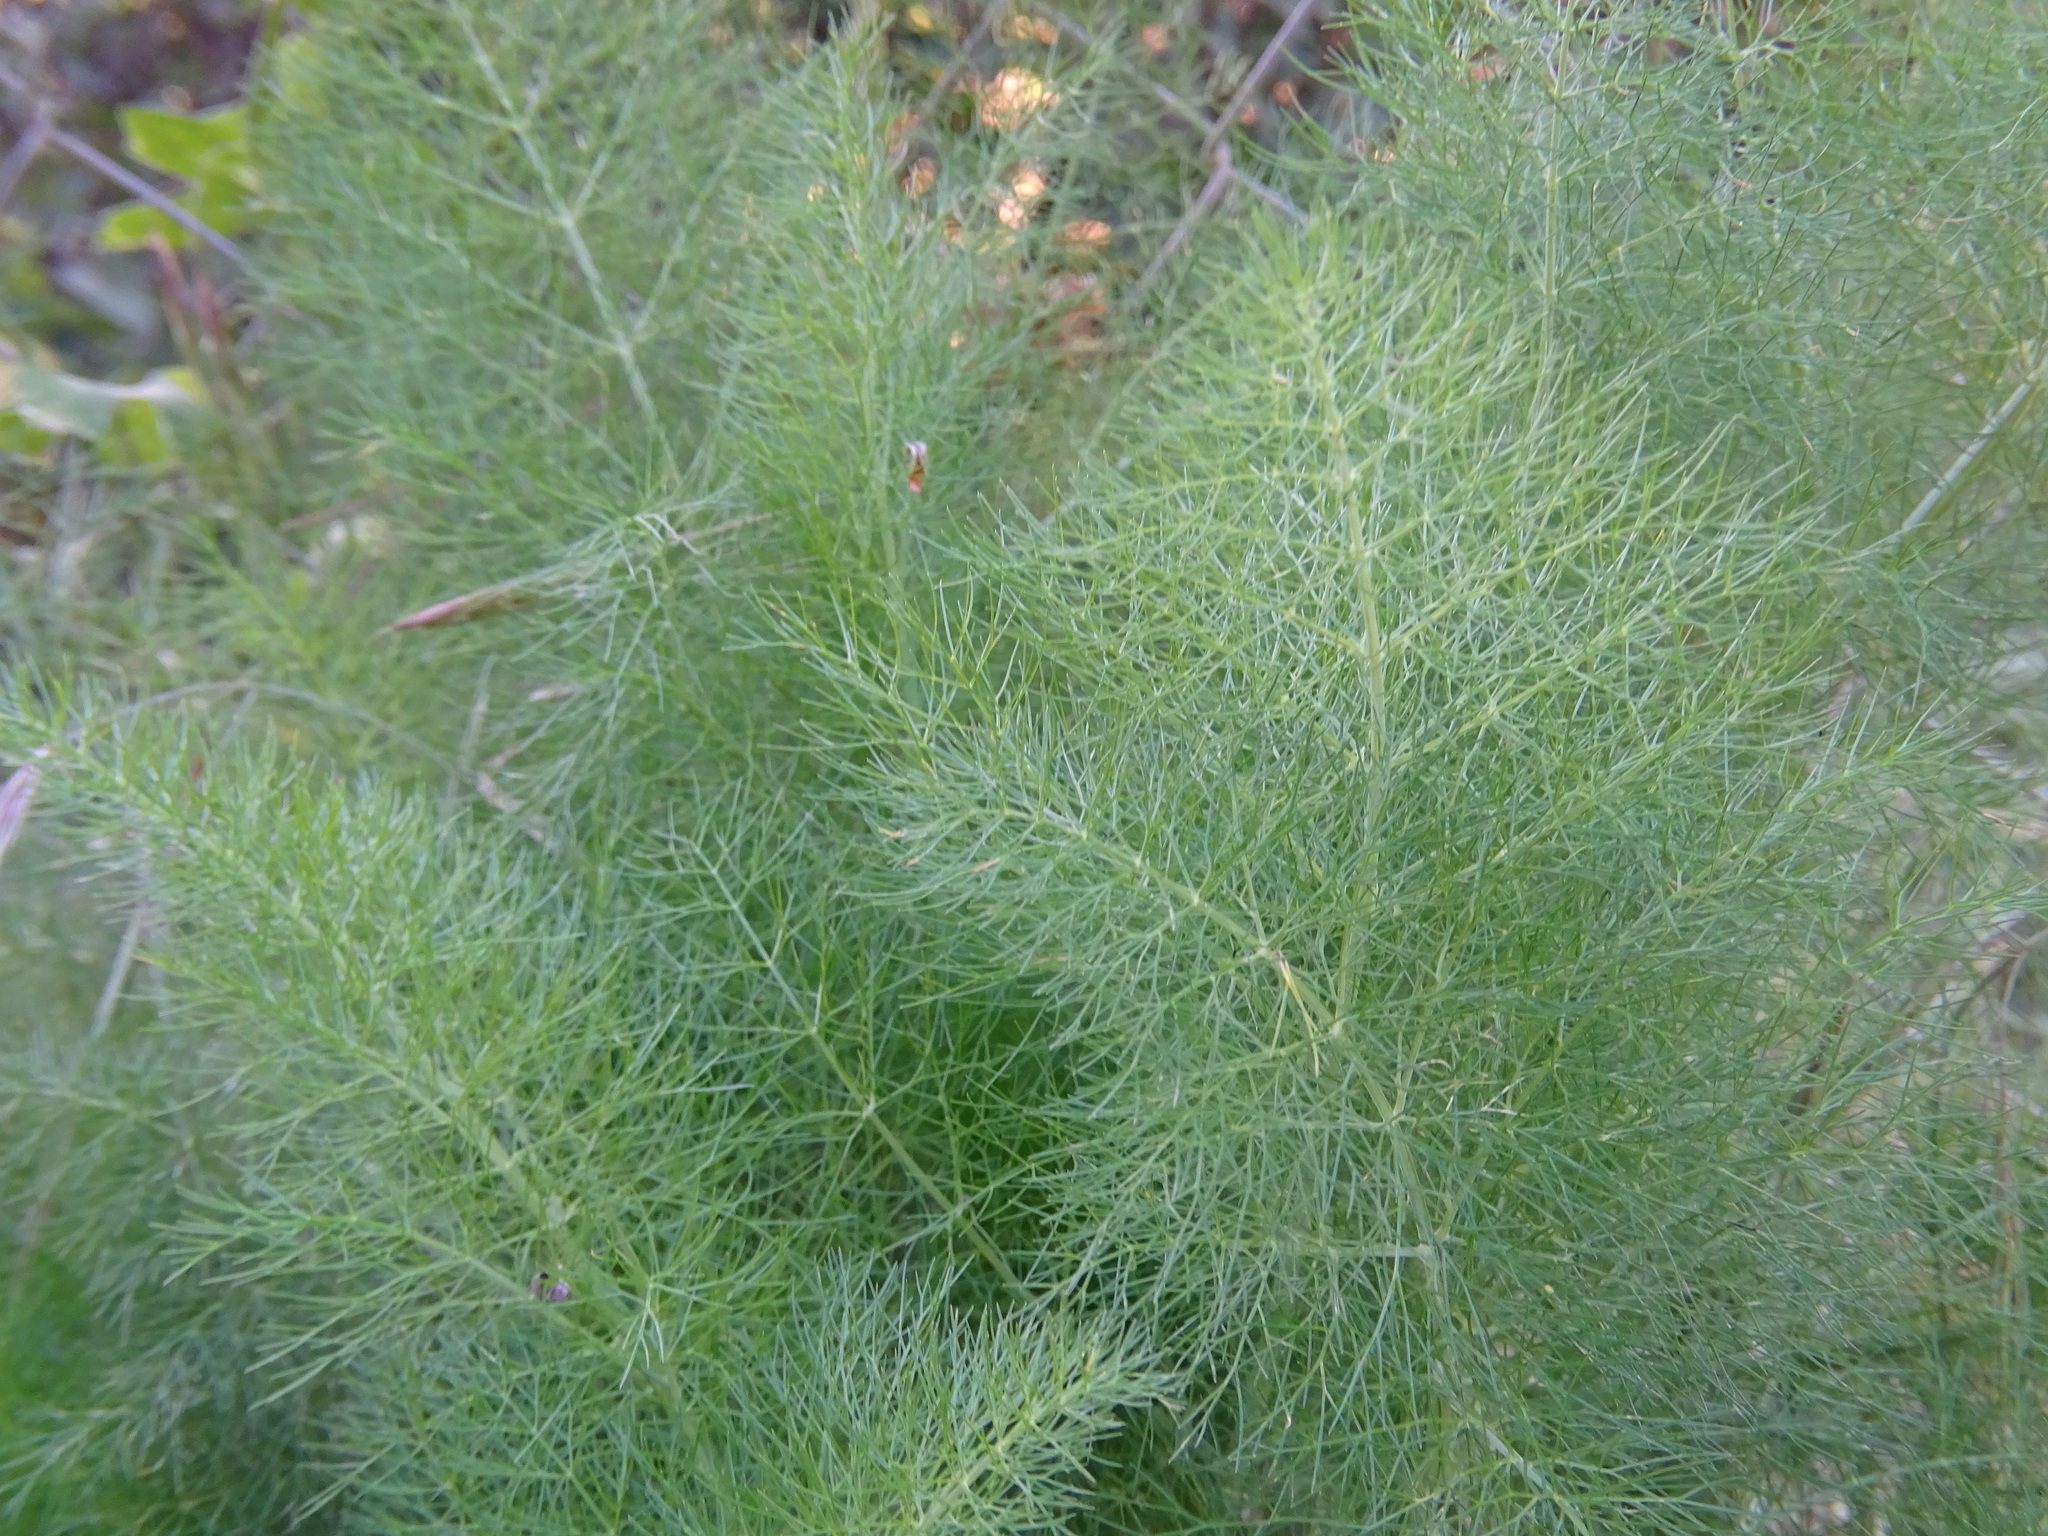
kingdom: Plantae
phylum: Tracheophyta
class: Magnoliopsida
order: Apiales
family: Apiaceae
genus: Foeniculum
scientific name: Foeniculum vulgare
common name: Fennel
